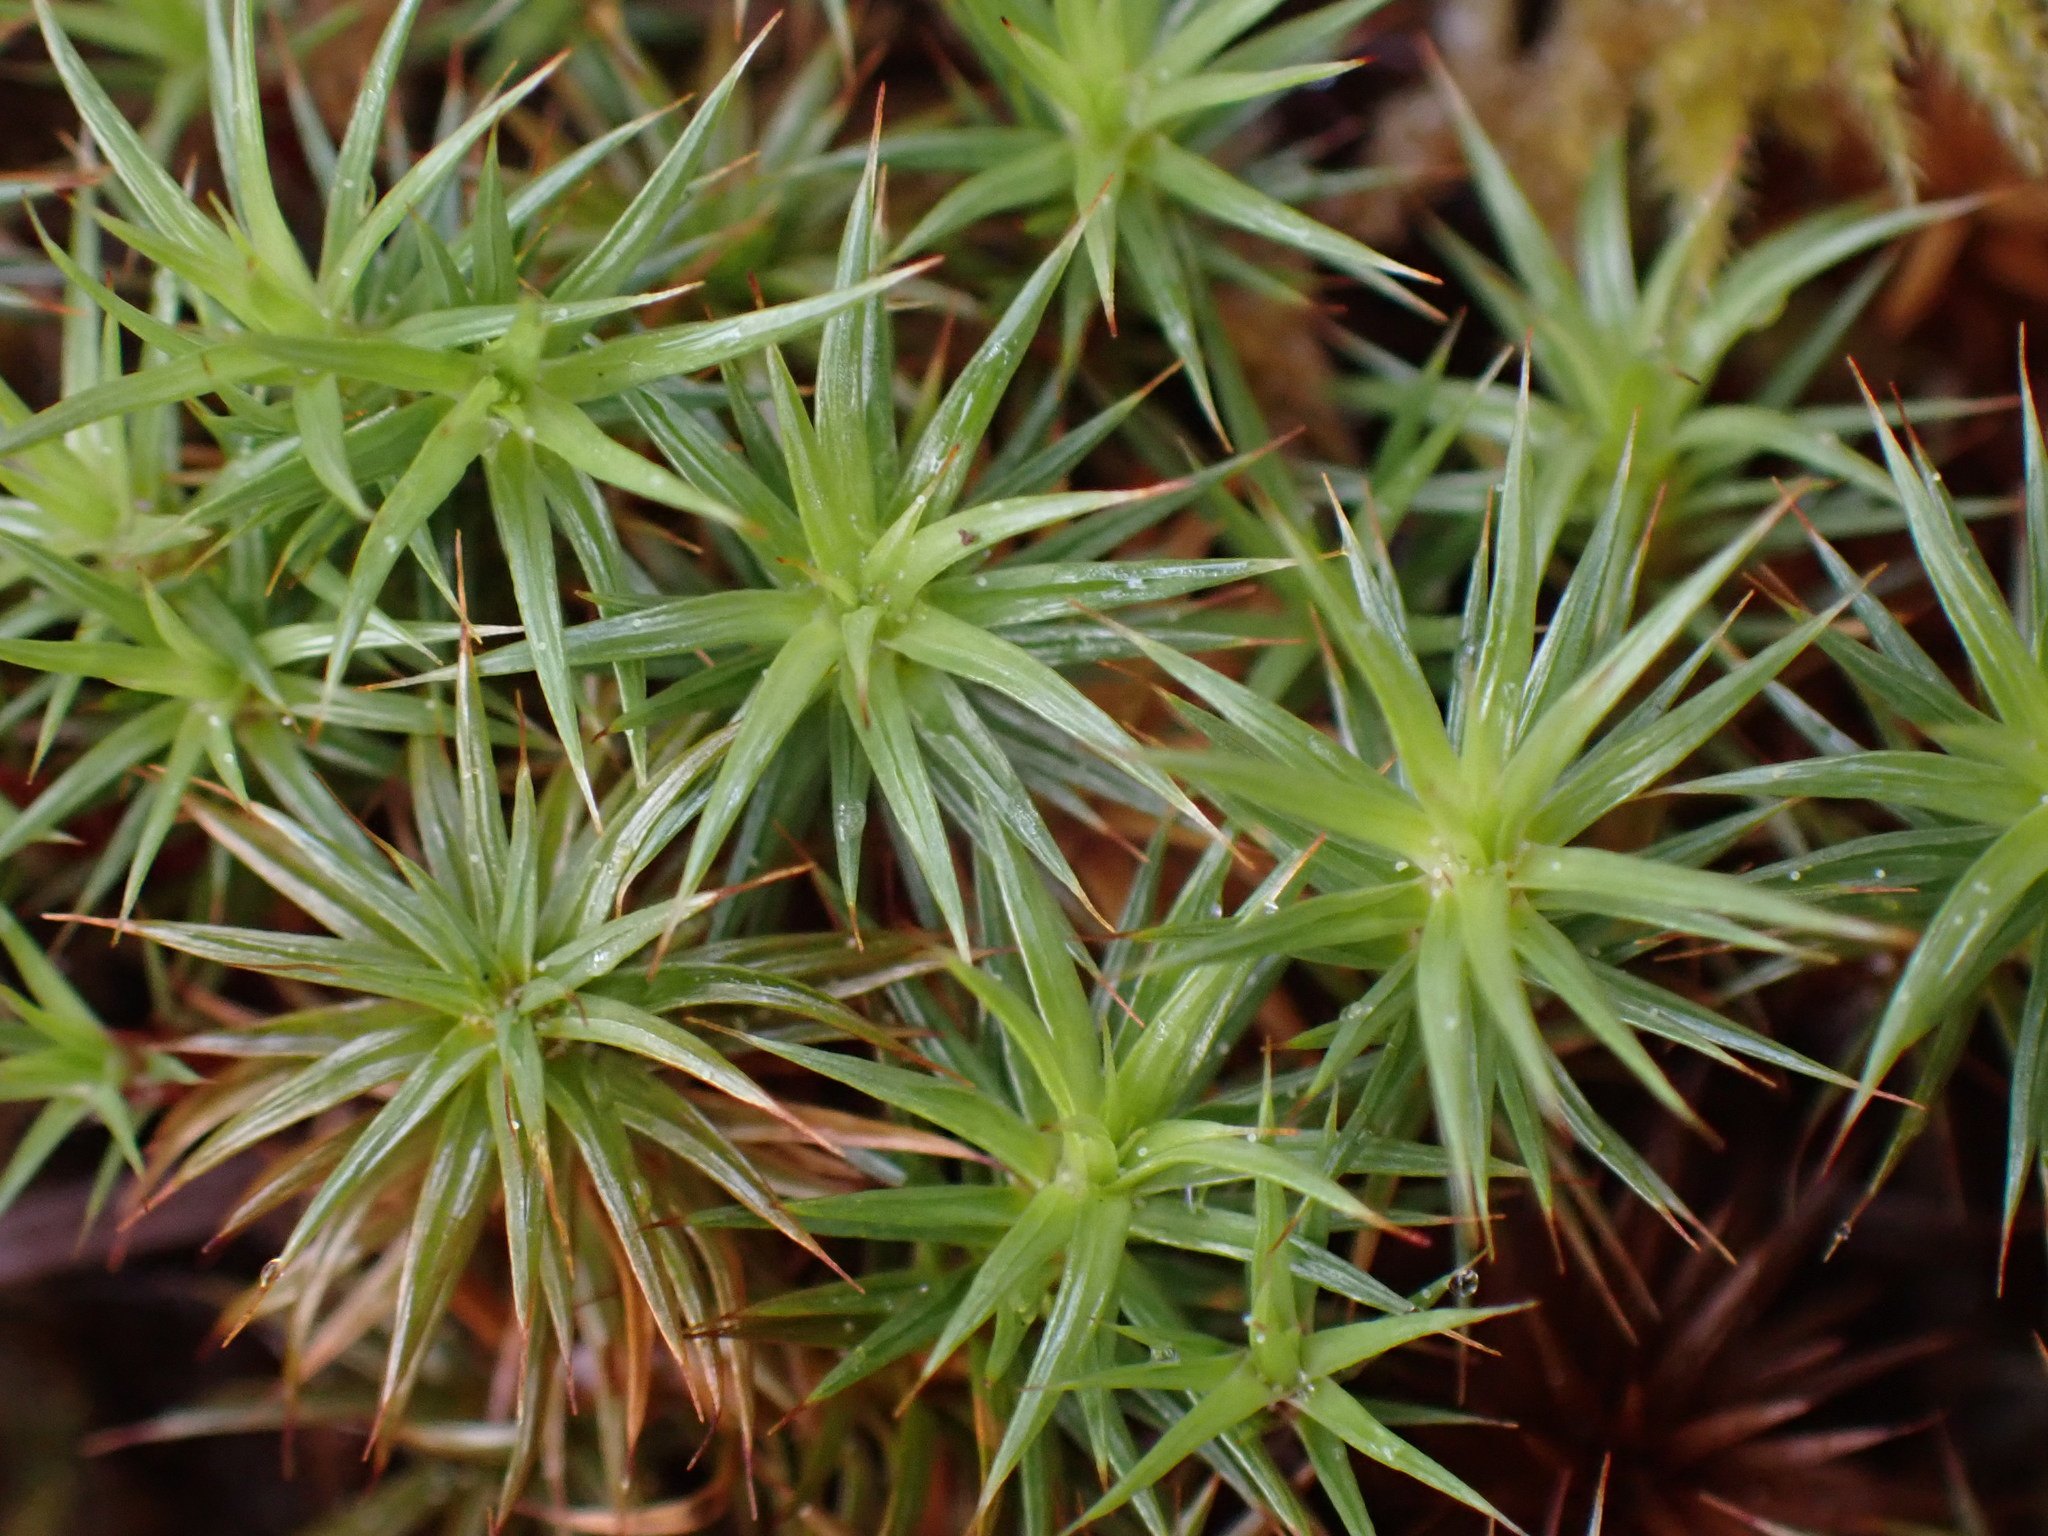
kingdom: Plantae
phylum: Bryophyta
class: Polytrichopsida
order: Polytrichales
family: Polytrichaceae
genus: Polytrichum
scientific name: Polytrichum juniperinum
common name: Juniper haircap moss
